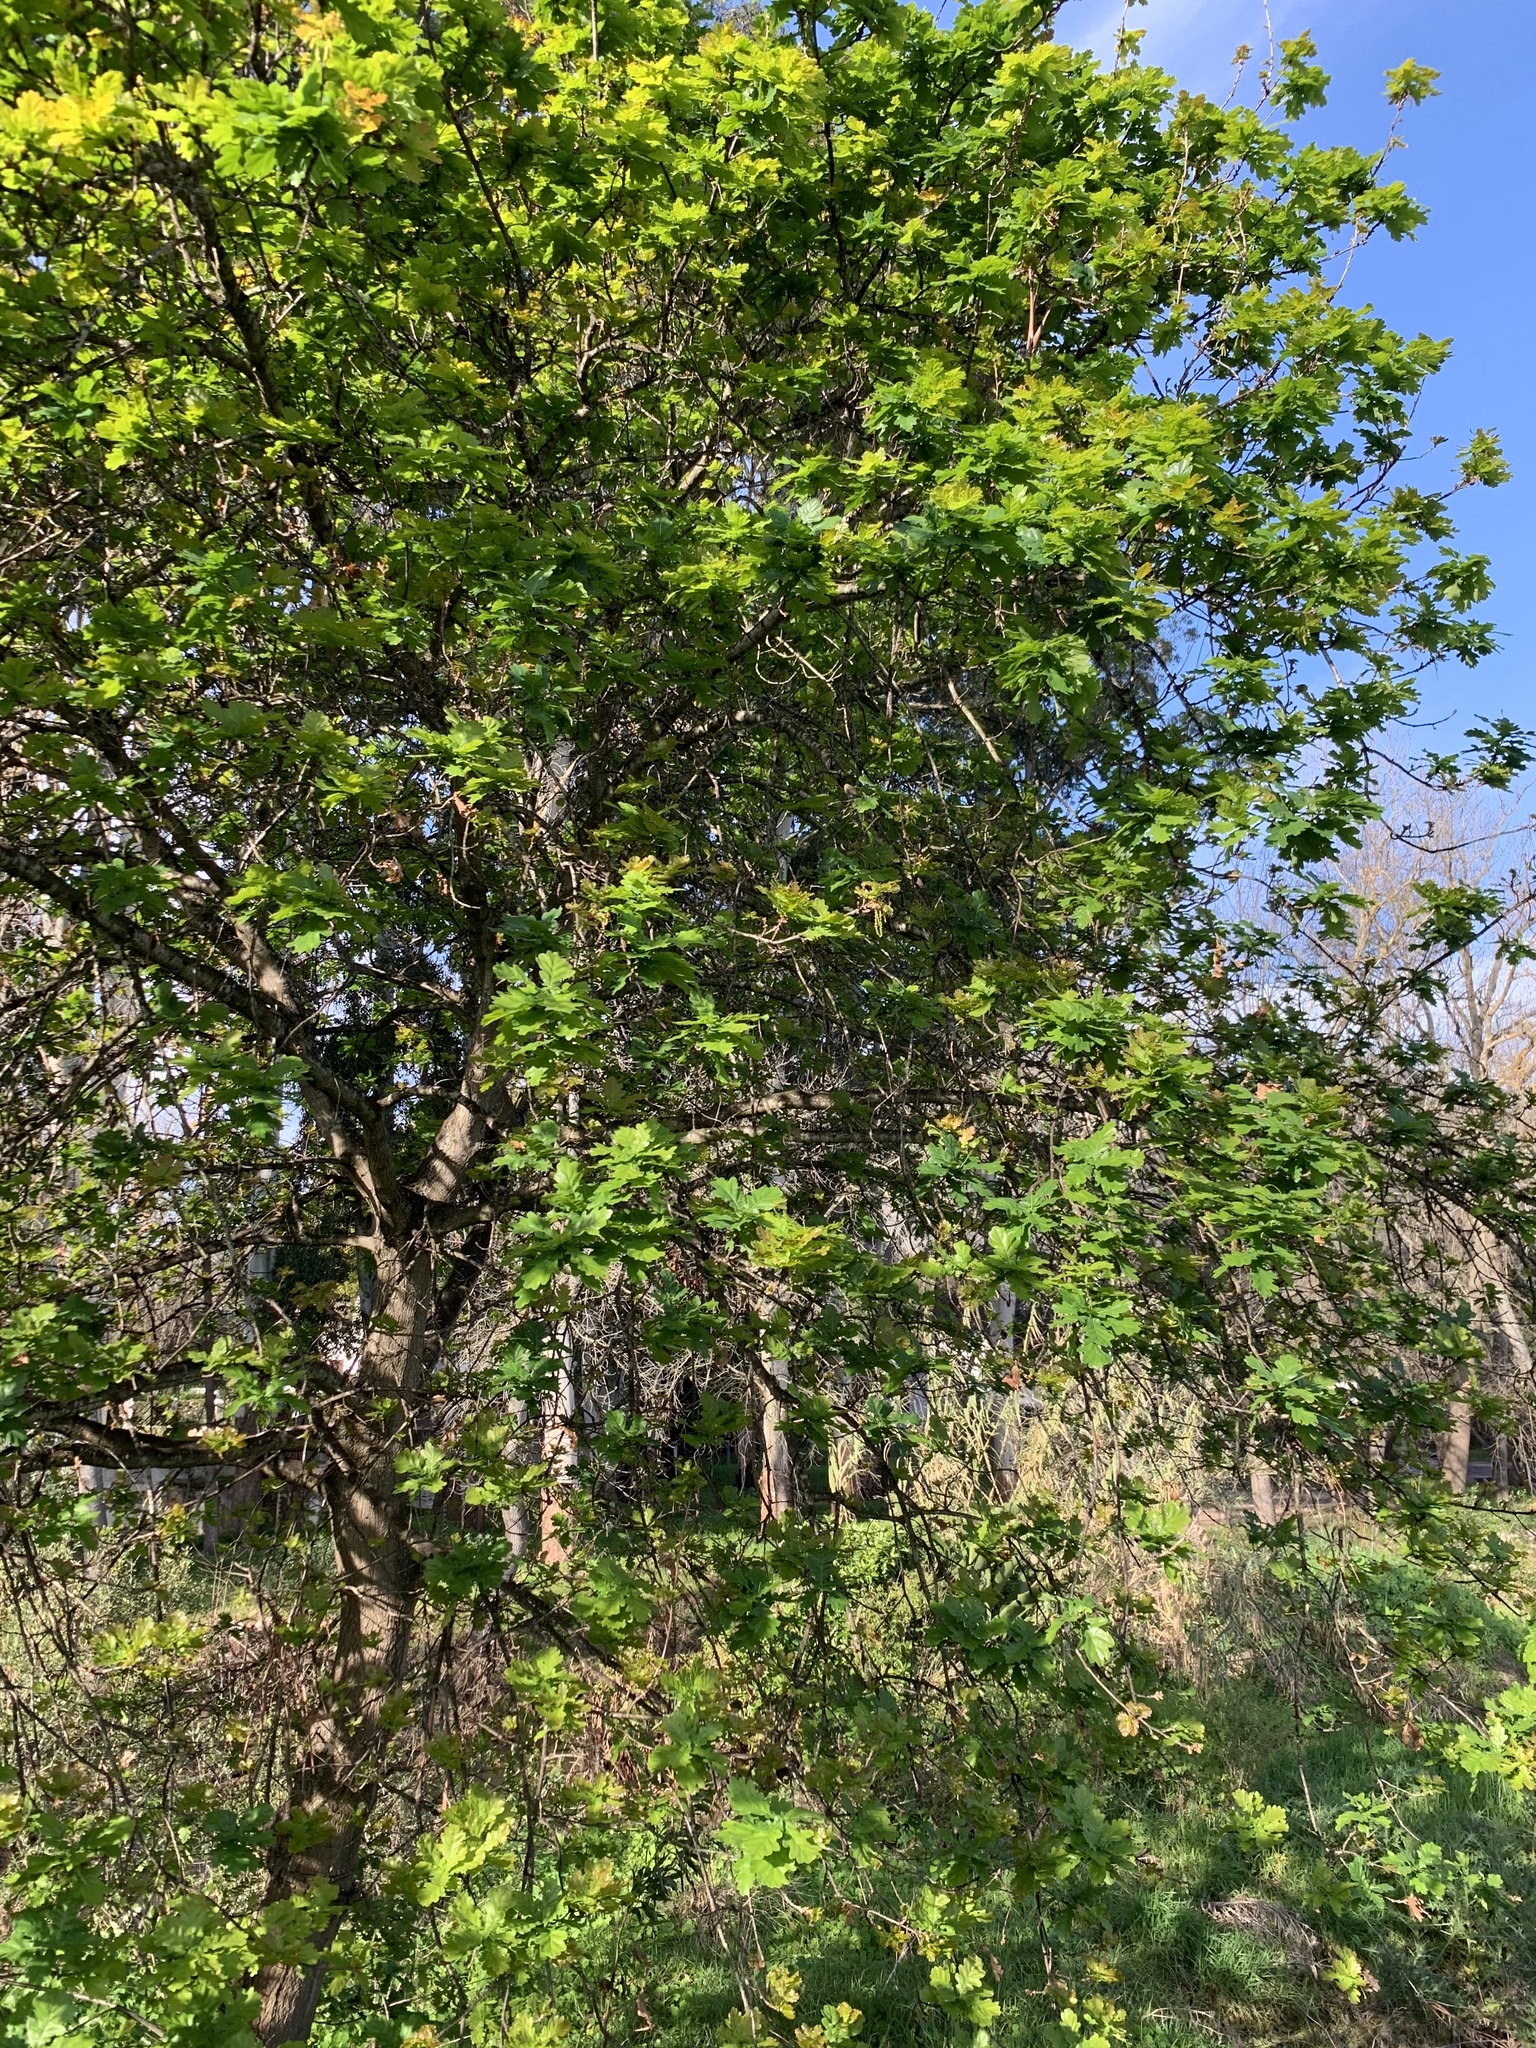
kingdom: Plantae
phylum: Tracheophyta
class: Magnoliopsida
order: Fagales
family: Fagaceae
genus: Quercus
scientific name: Quercus robur
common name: Pedunculate oak
